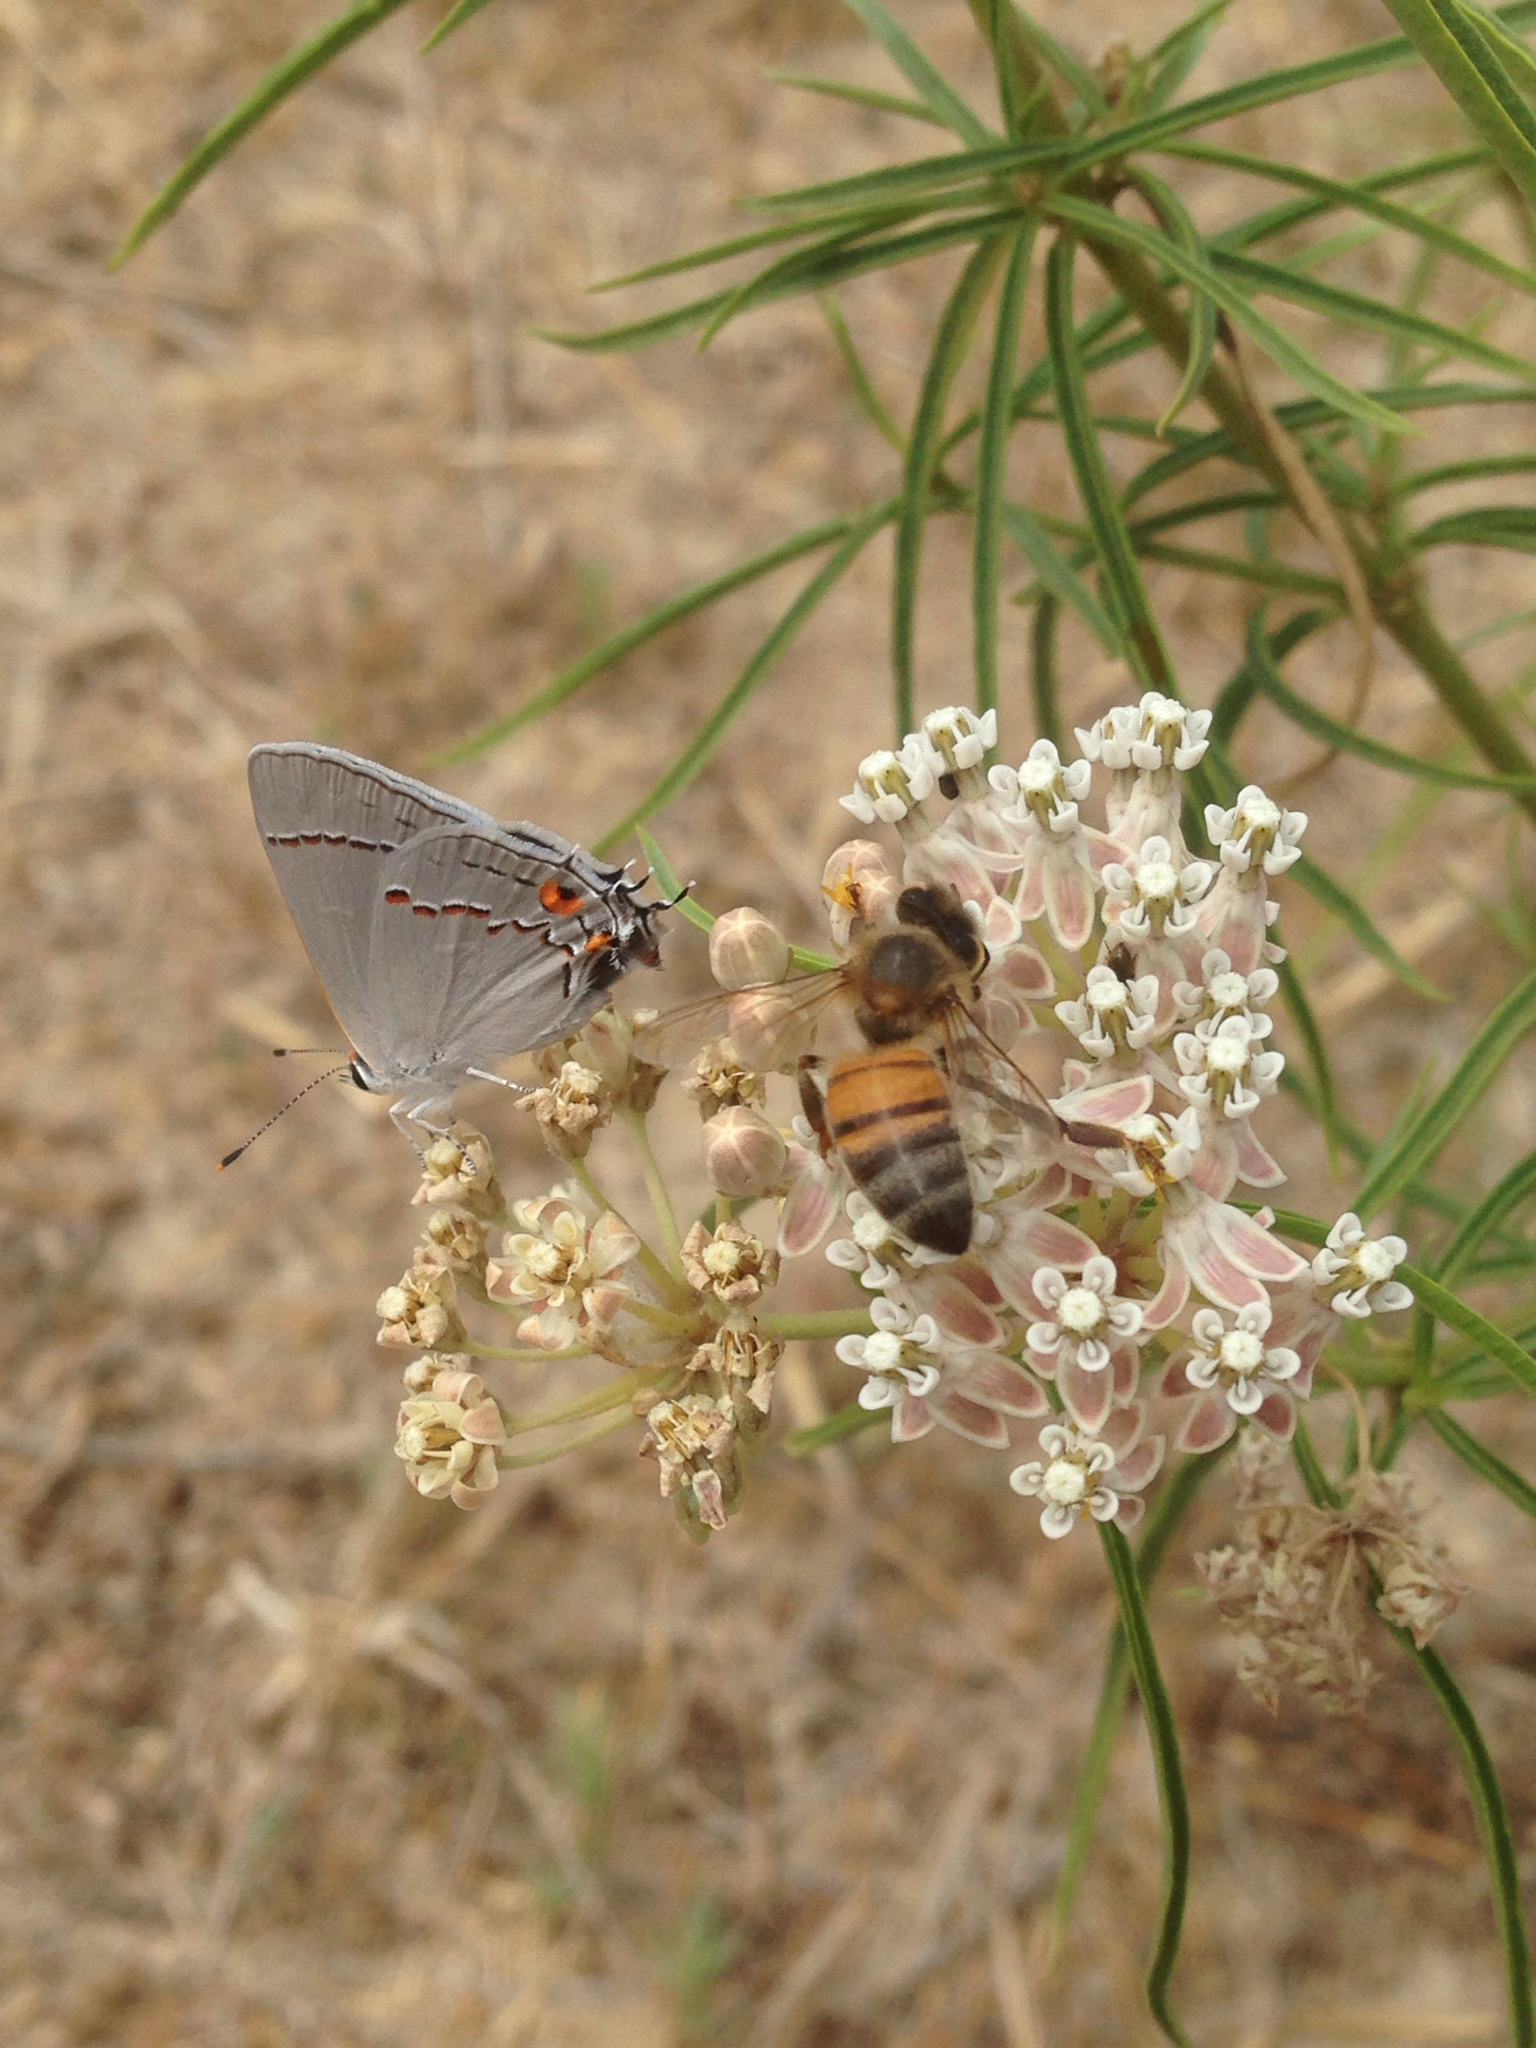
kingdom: Animalia
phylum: Arthropoda
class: Insecta
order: Lepidoptera
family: Lycaenidae
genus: Strymon
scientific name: Strymon melinus
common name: Gray hairstreak
